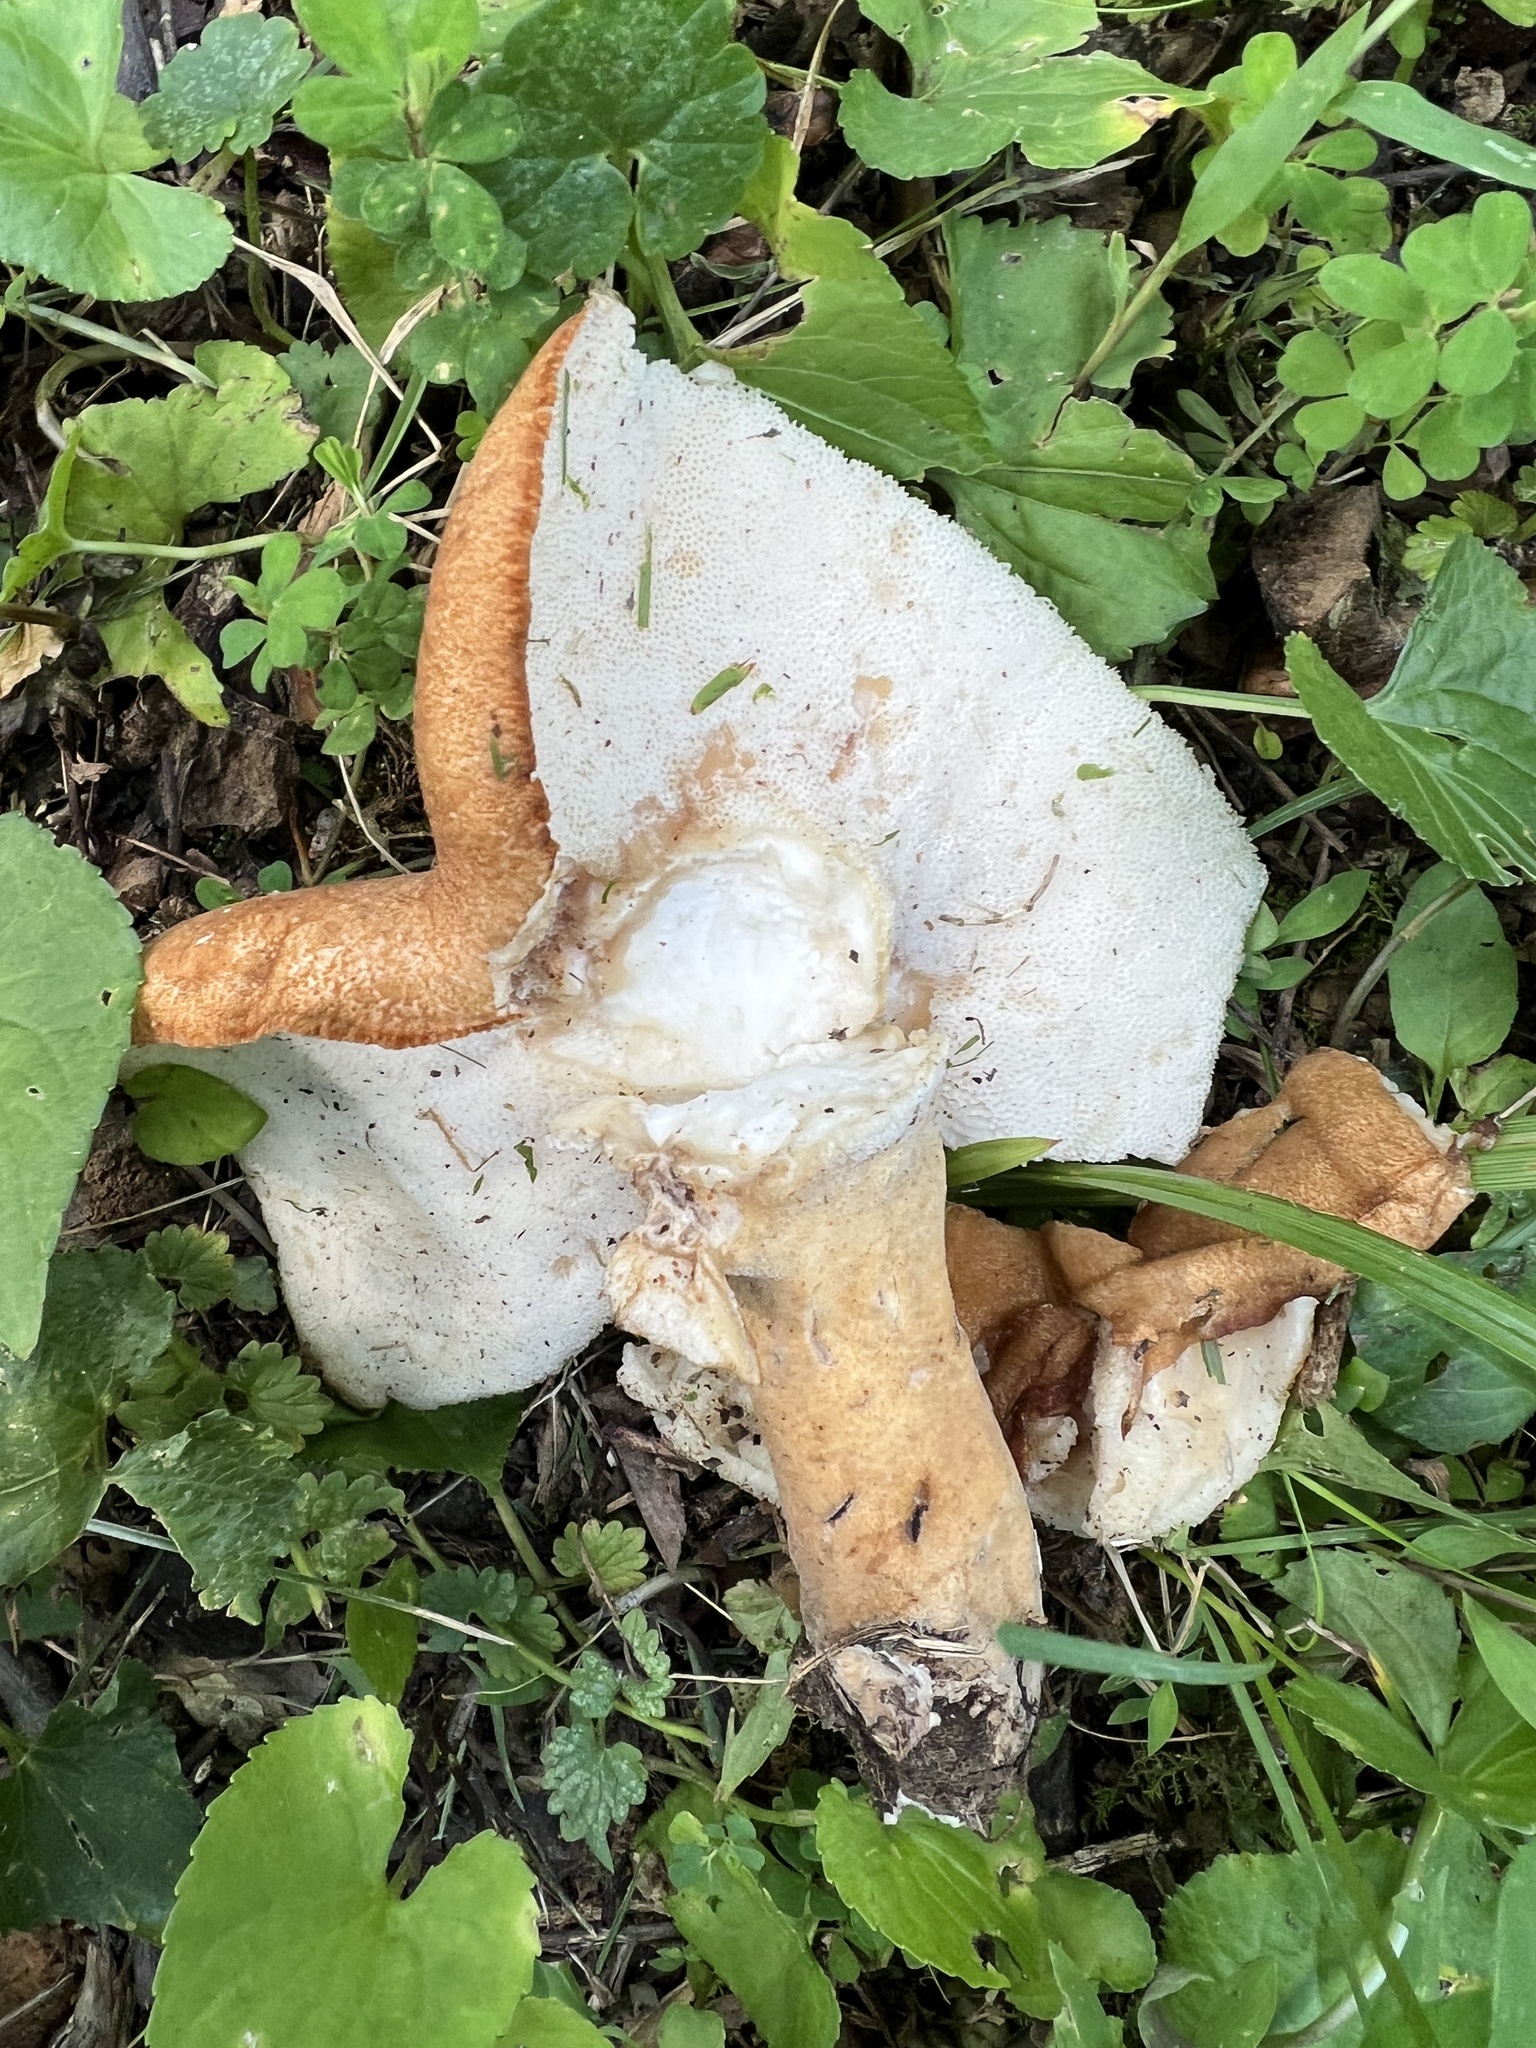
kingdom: Fungi
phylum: Basidiomycota
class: Agaricomycetes
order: Polyporales
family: Polyporaceae
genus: Polyporus
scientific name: Polyporus radicatus
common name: Rooting polypore
